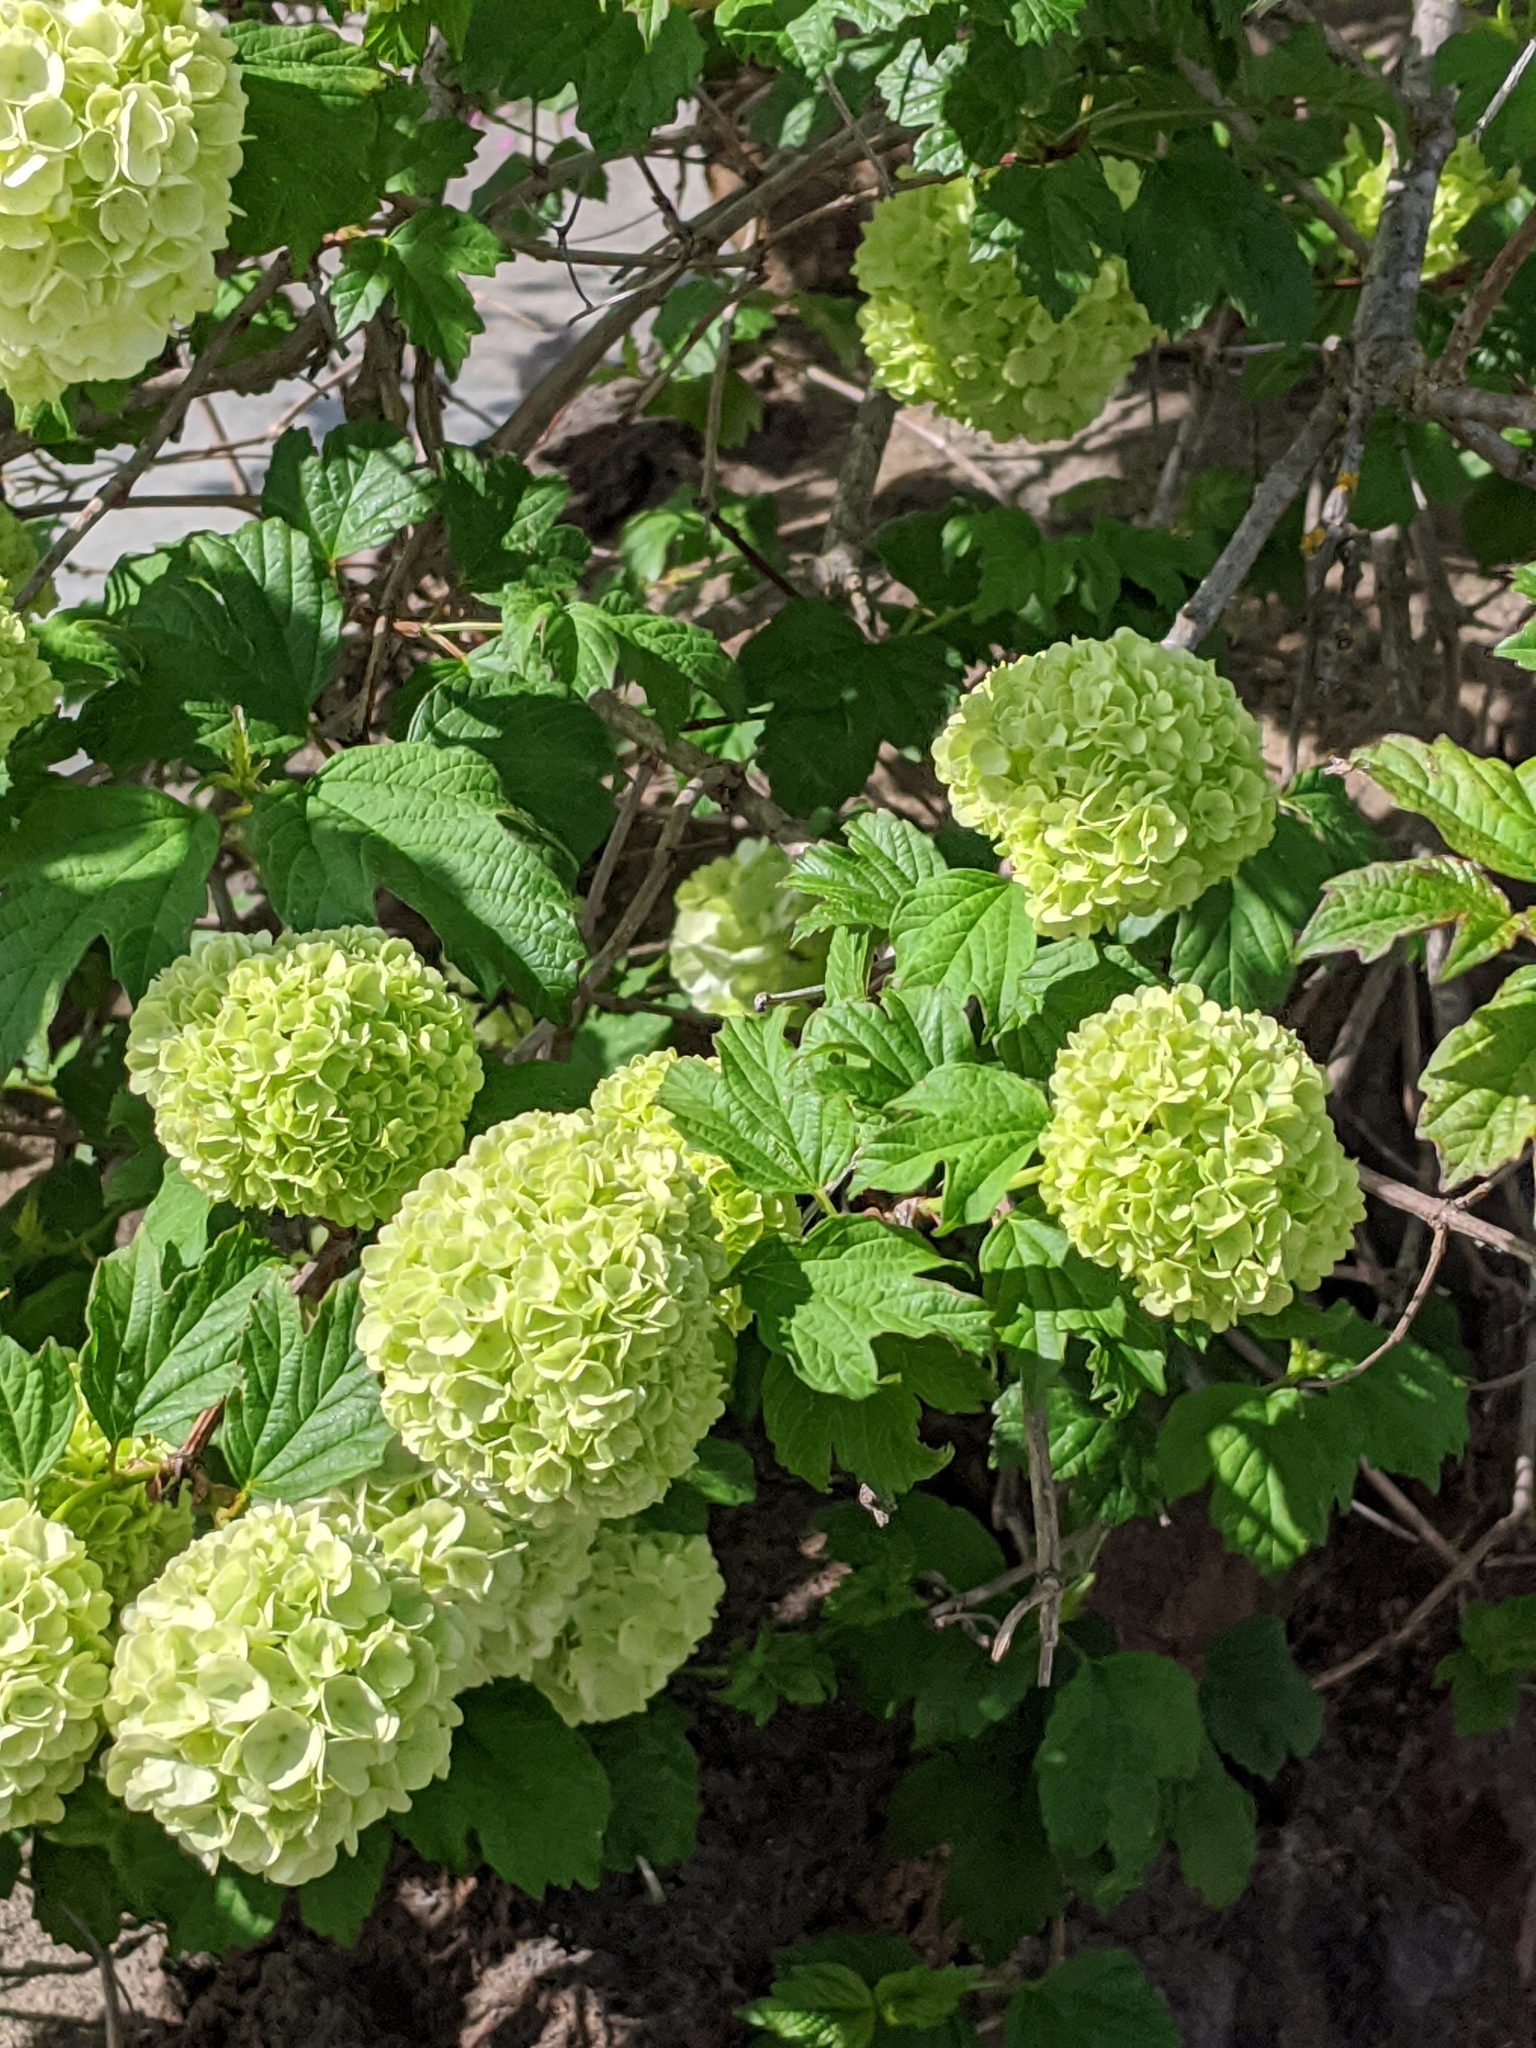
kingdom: Plantae
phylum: Tracheophyta
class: Magnoliopsida
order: Dipsacales
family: Viburnaceae
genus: Viburnum
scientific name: Viburnum opulus
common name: Guelder-rose
